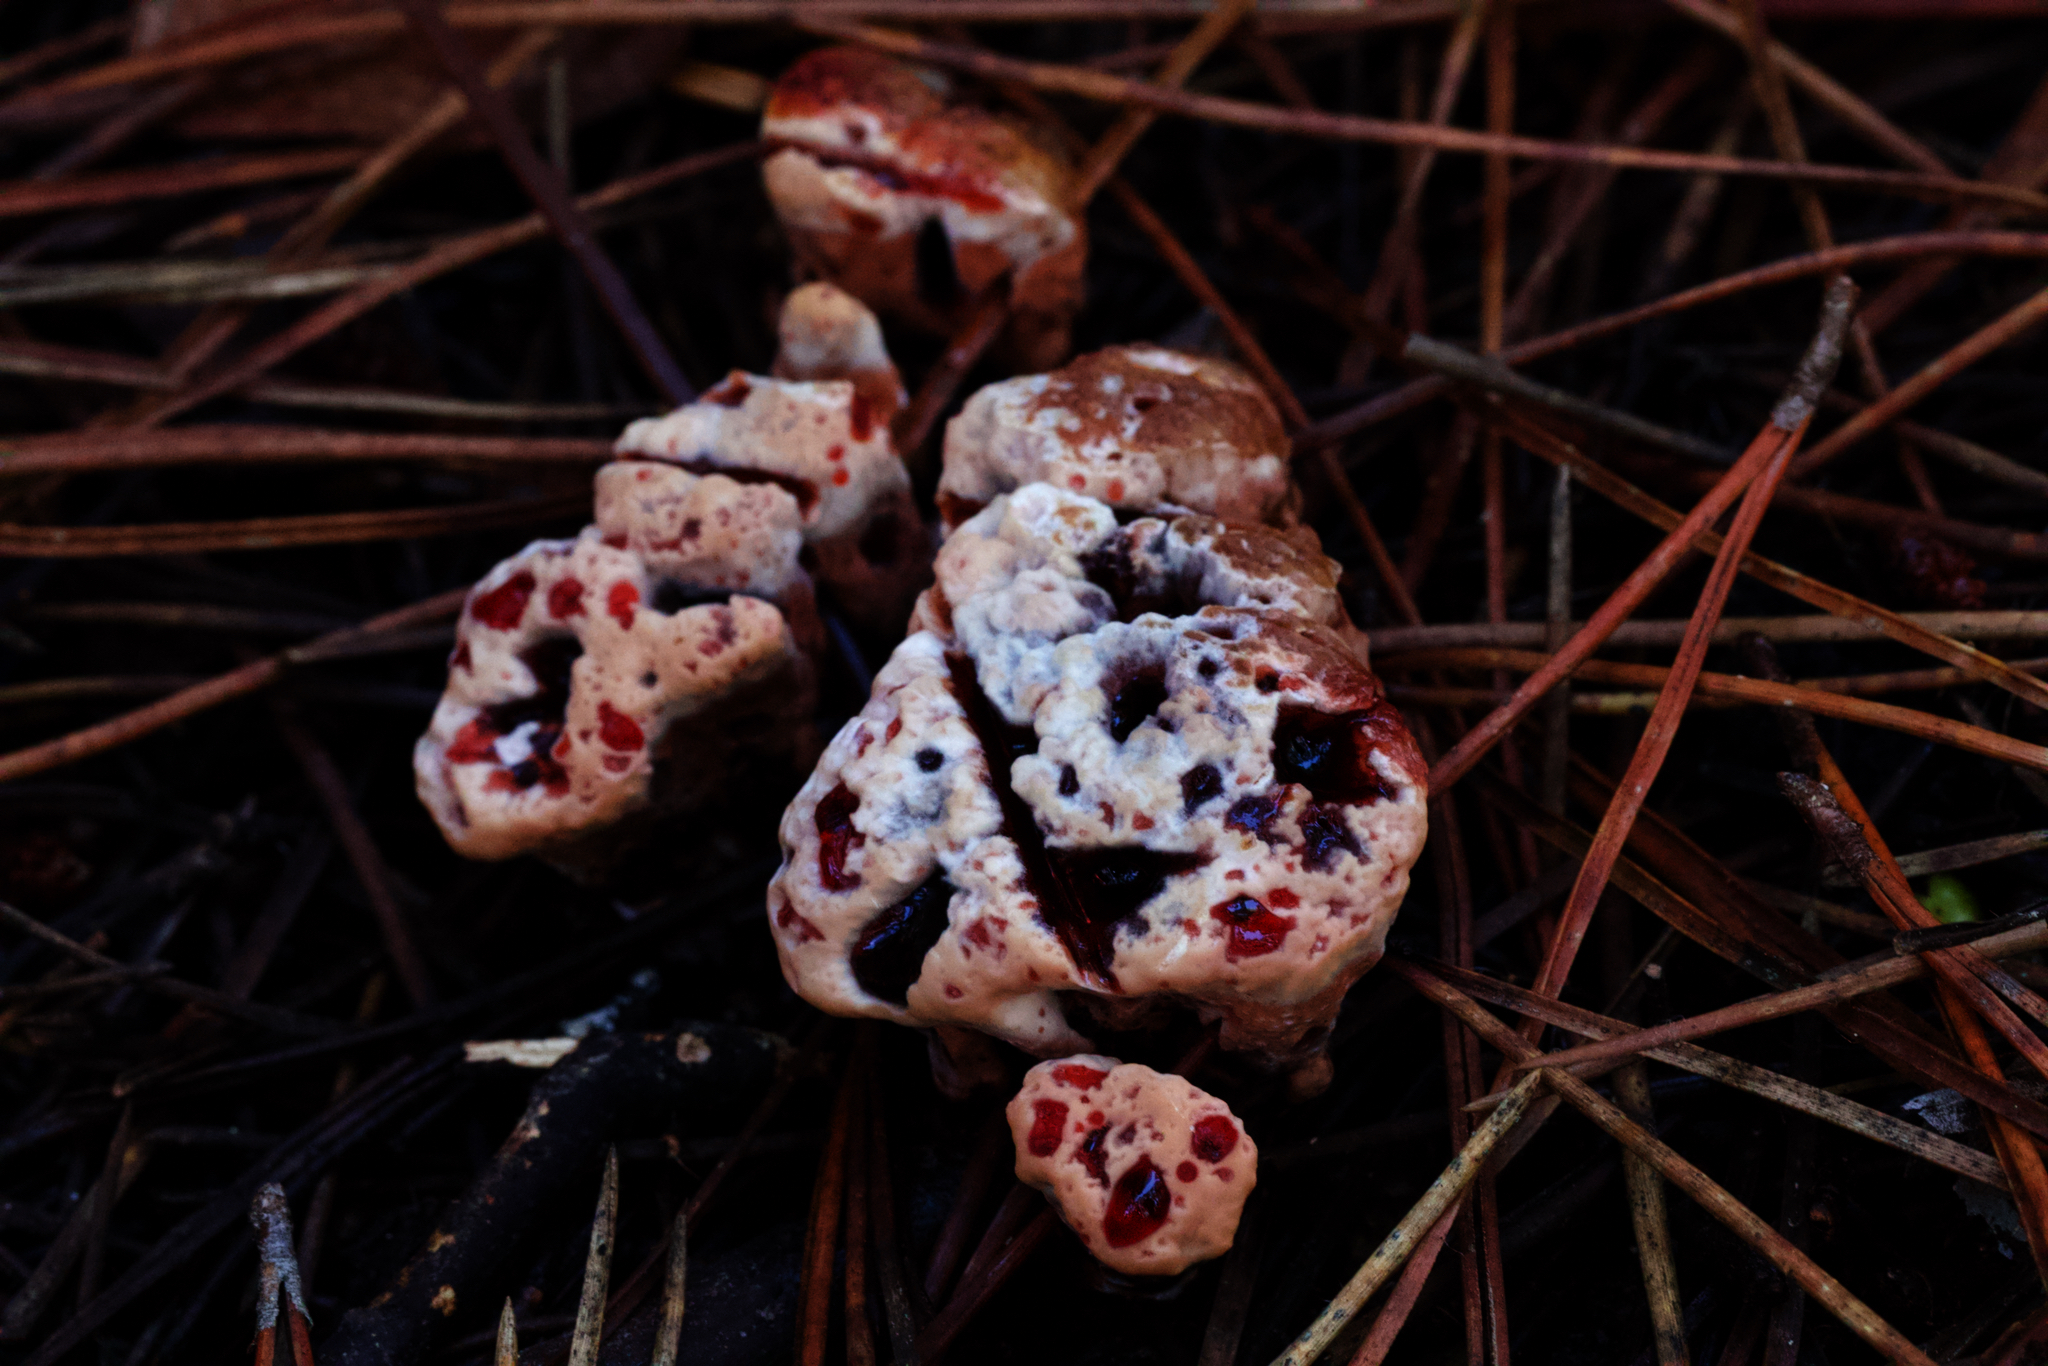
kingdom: Fungi
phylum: Basidiomycota
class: Agaricomycetes
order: Thelephorales
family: Bankeraceae
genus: Hydnellum
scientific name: Hydnellum peckii
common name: Devil's tooth
